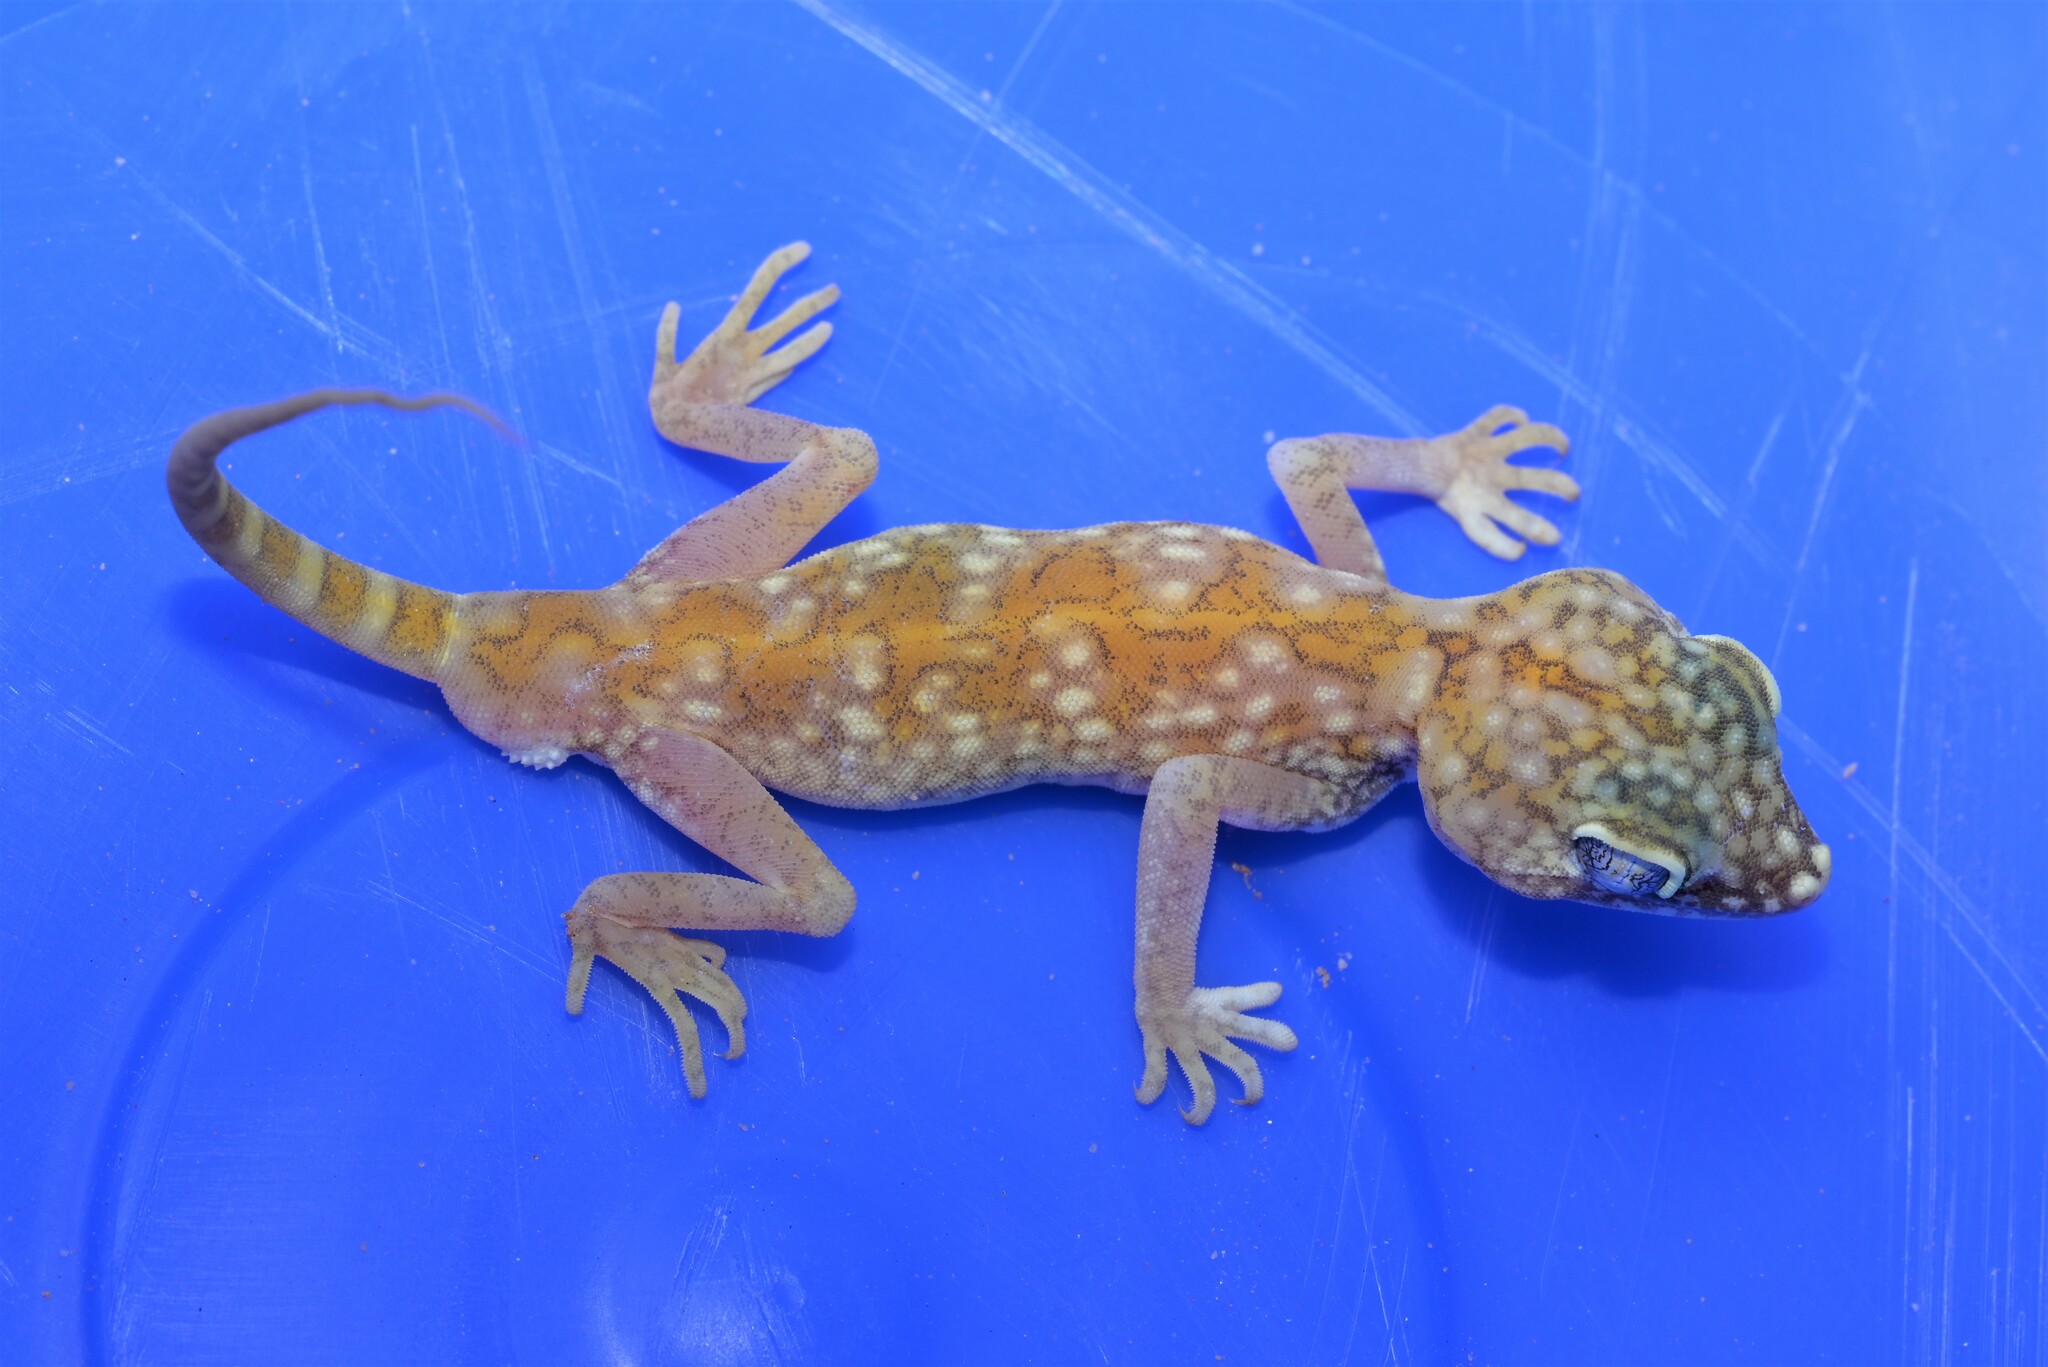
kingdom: Animalia
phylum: Chordata
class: Squamata
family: Gekkonidae
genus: Stenodactylus
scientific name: Stenodactylus doriae
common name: Dune sand gecko
